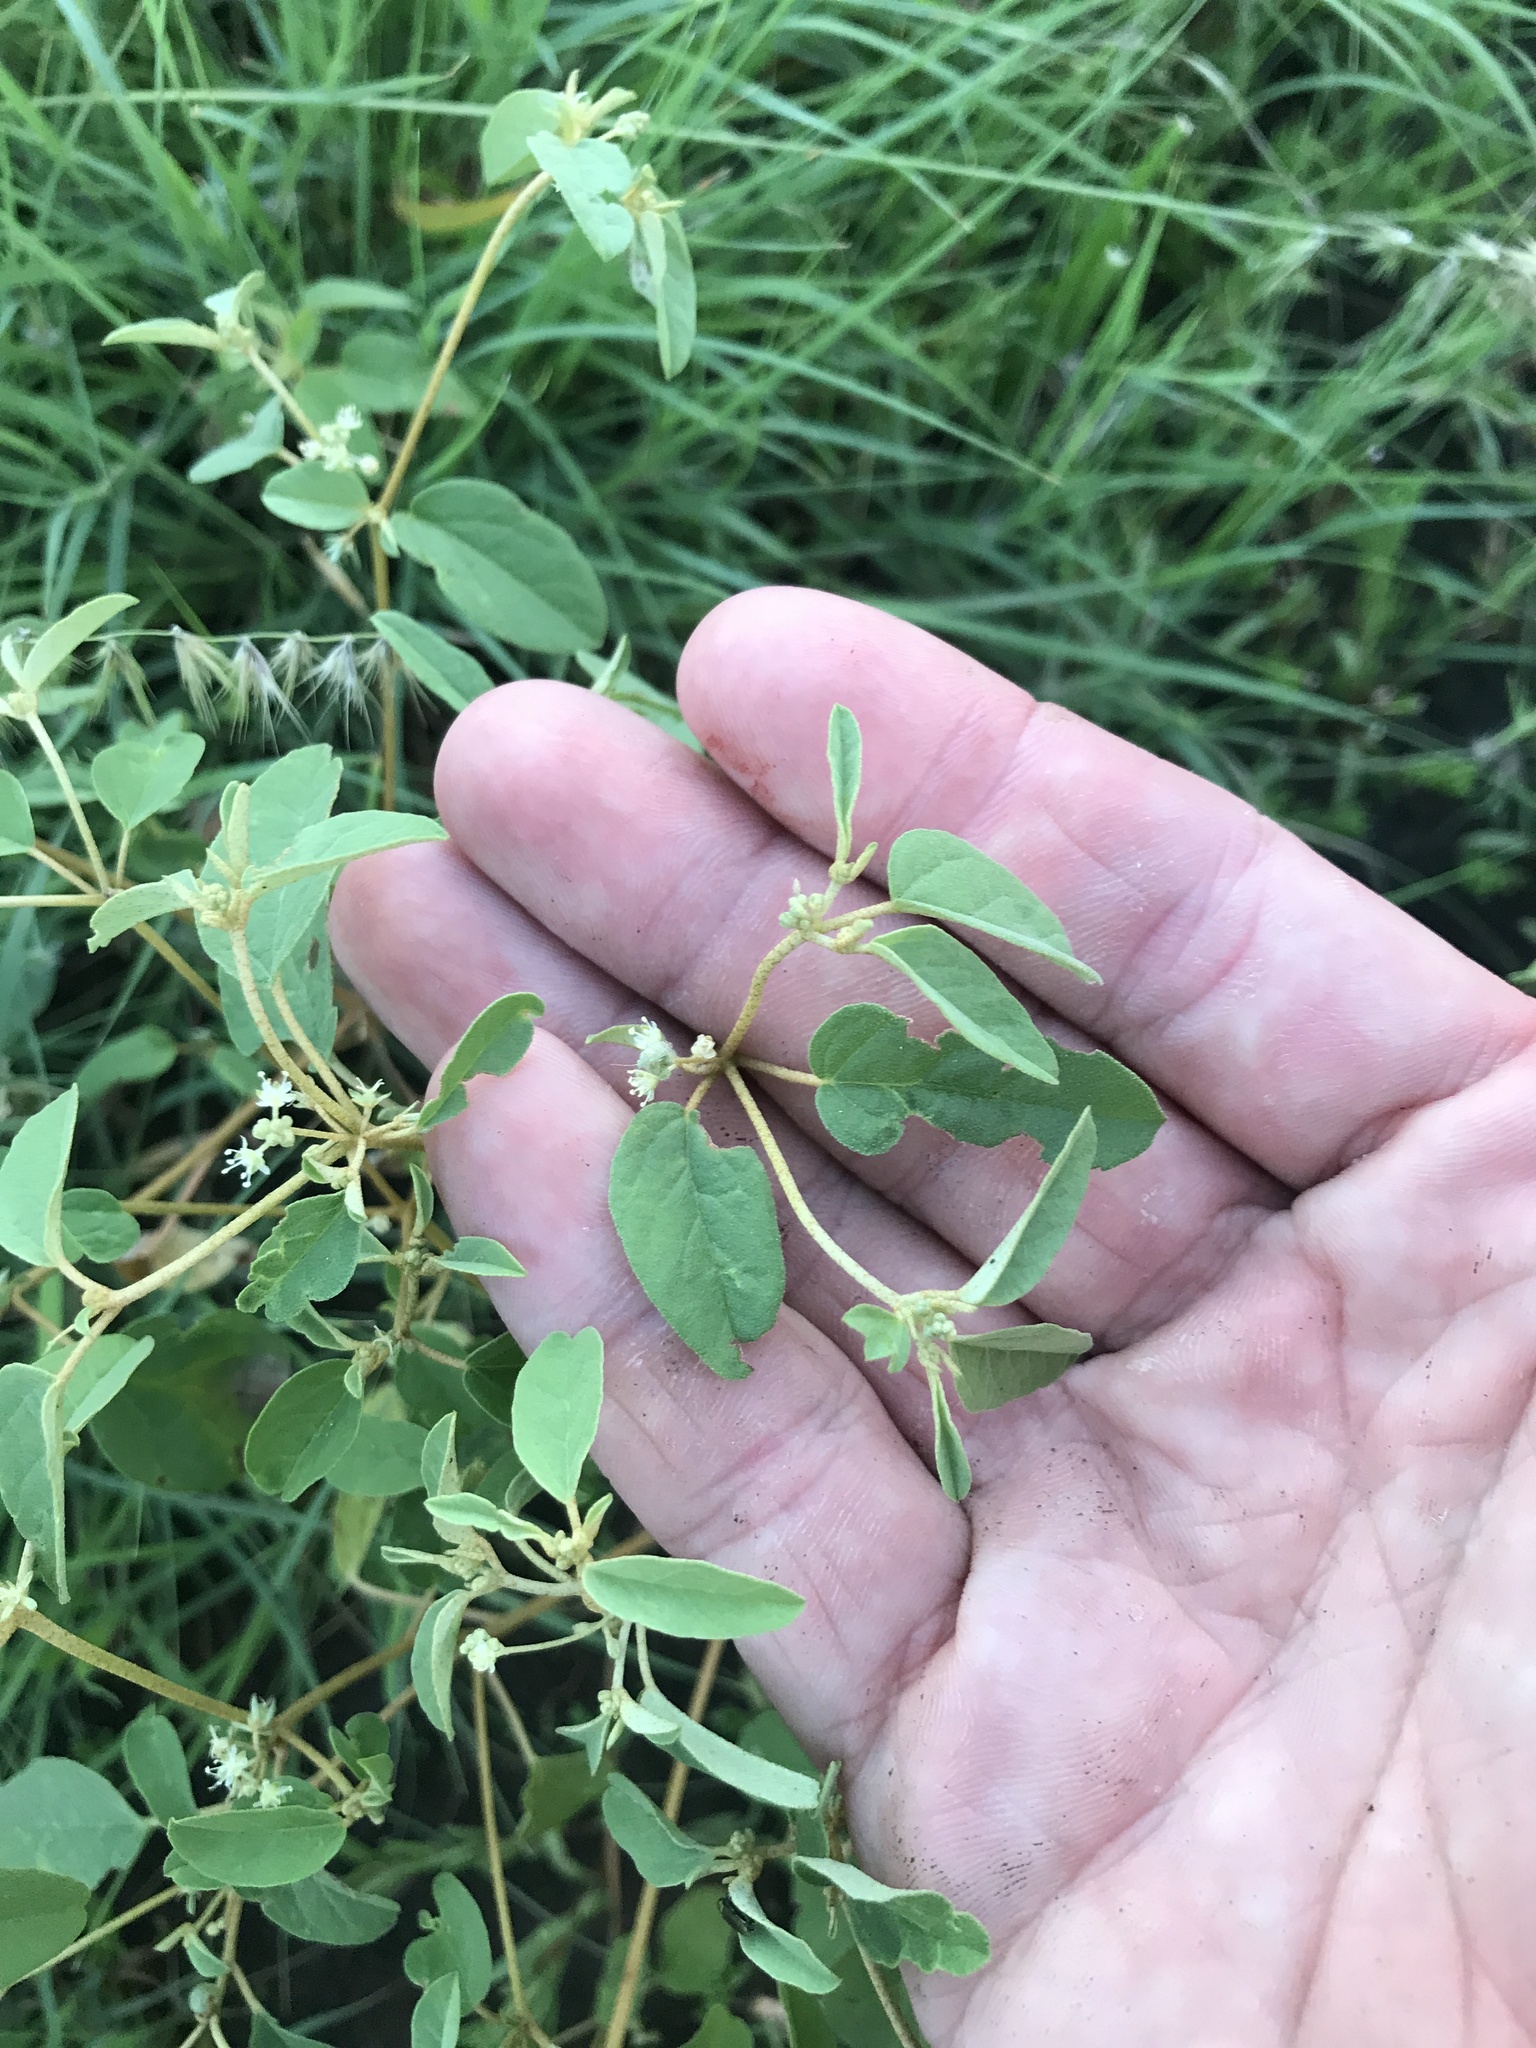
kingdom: Plantae
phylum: Tracheophyta
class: Magnoliopsida
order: Malpighiales
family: Euphorbiaceae
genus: Croton
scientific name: Croton monanthogynus
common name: One-seed croton
